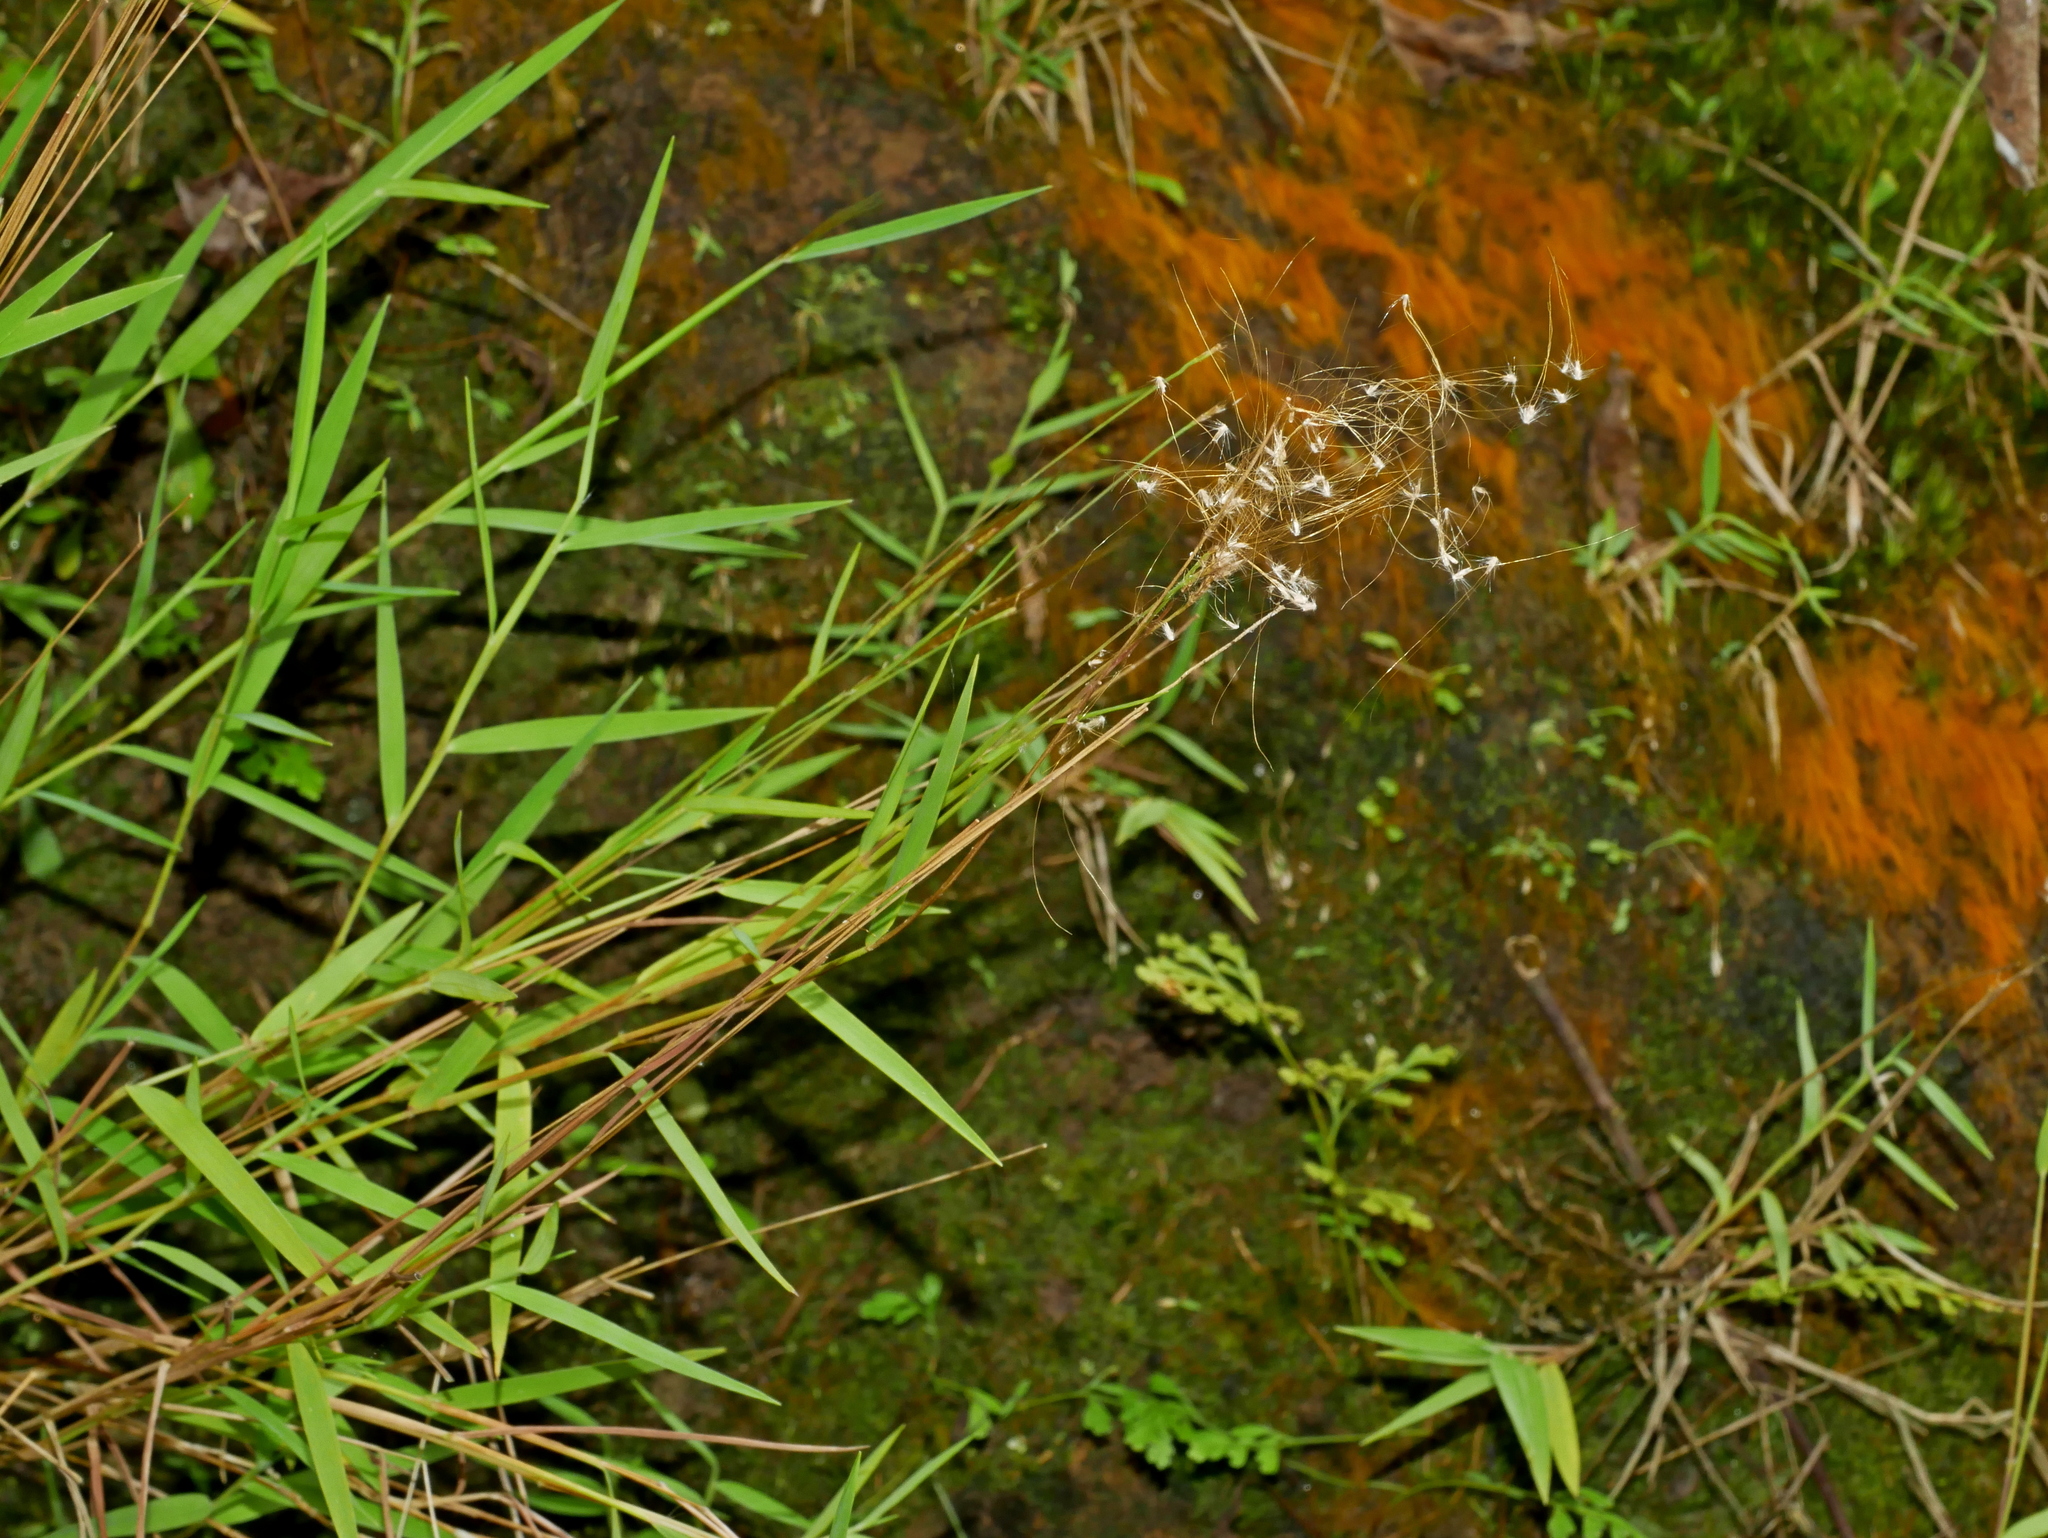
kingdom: Plantae
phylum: Tracheophyta
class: Liliopsida
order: Poales
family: Poaceae
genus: Pogonatherum
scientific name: Pogonatherum crinitum
